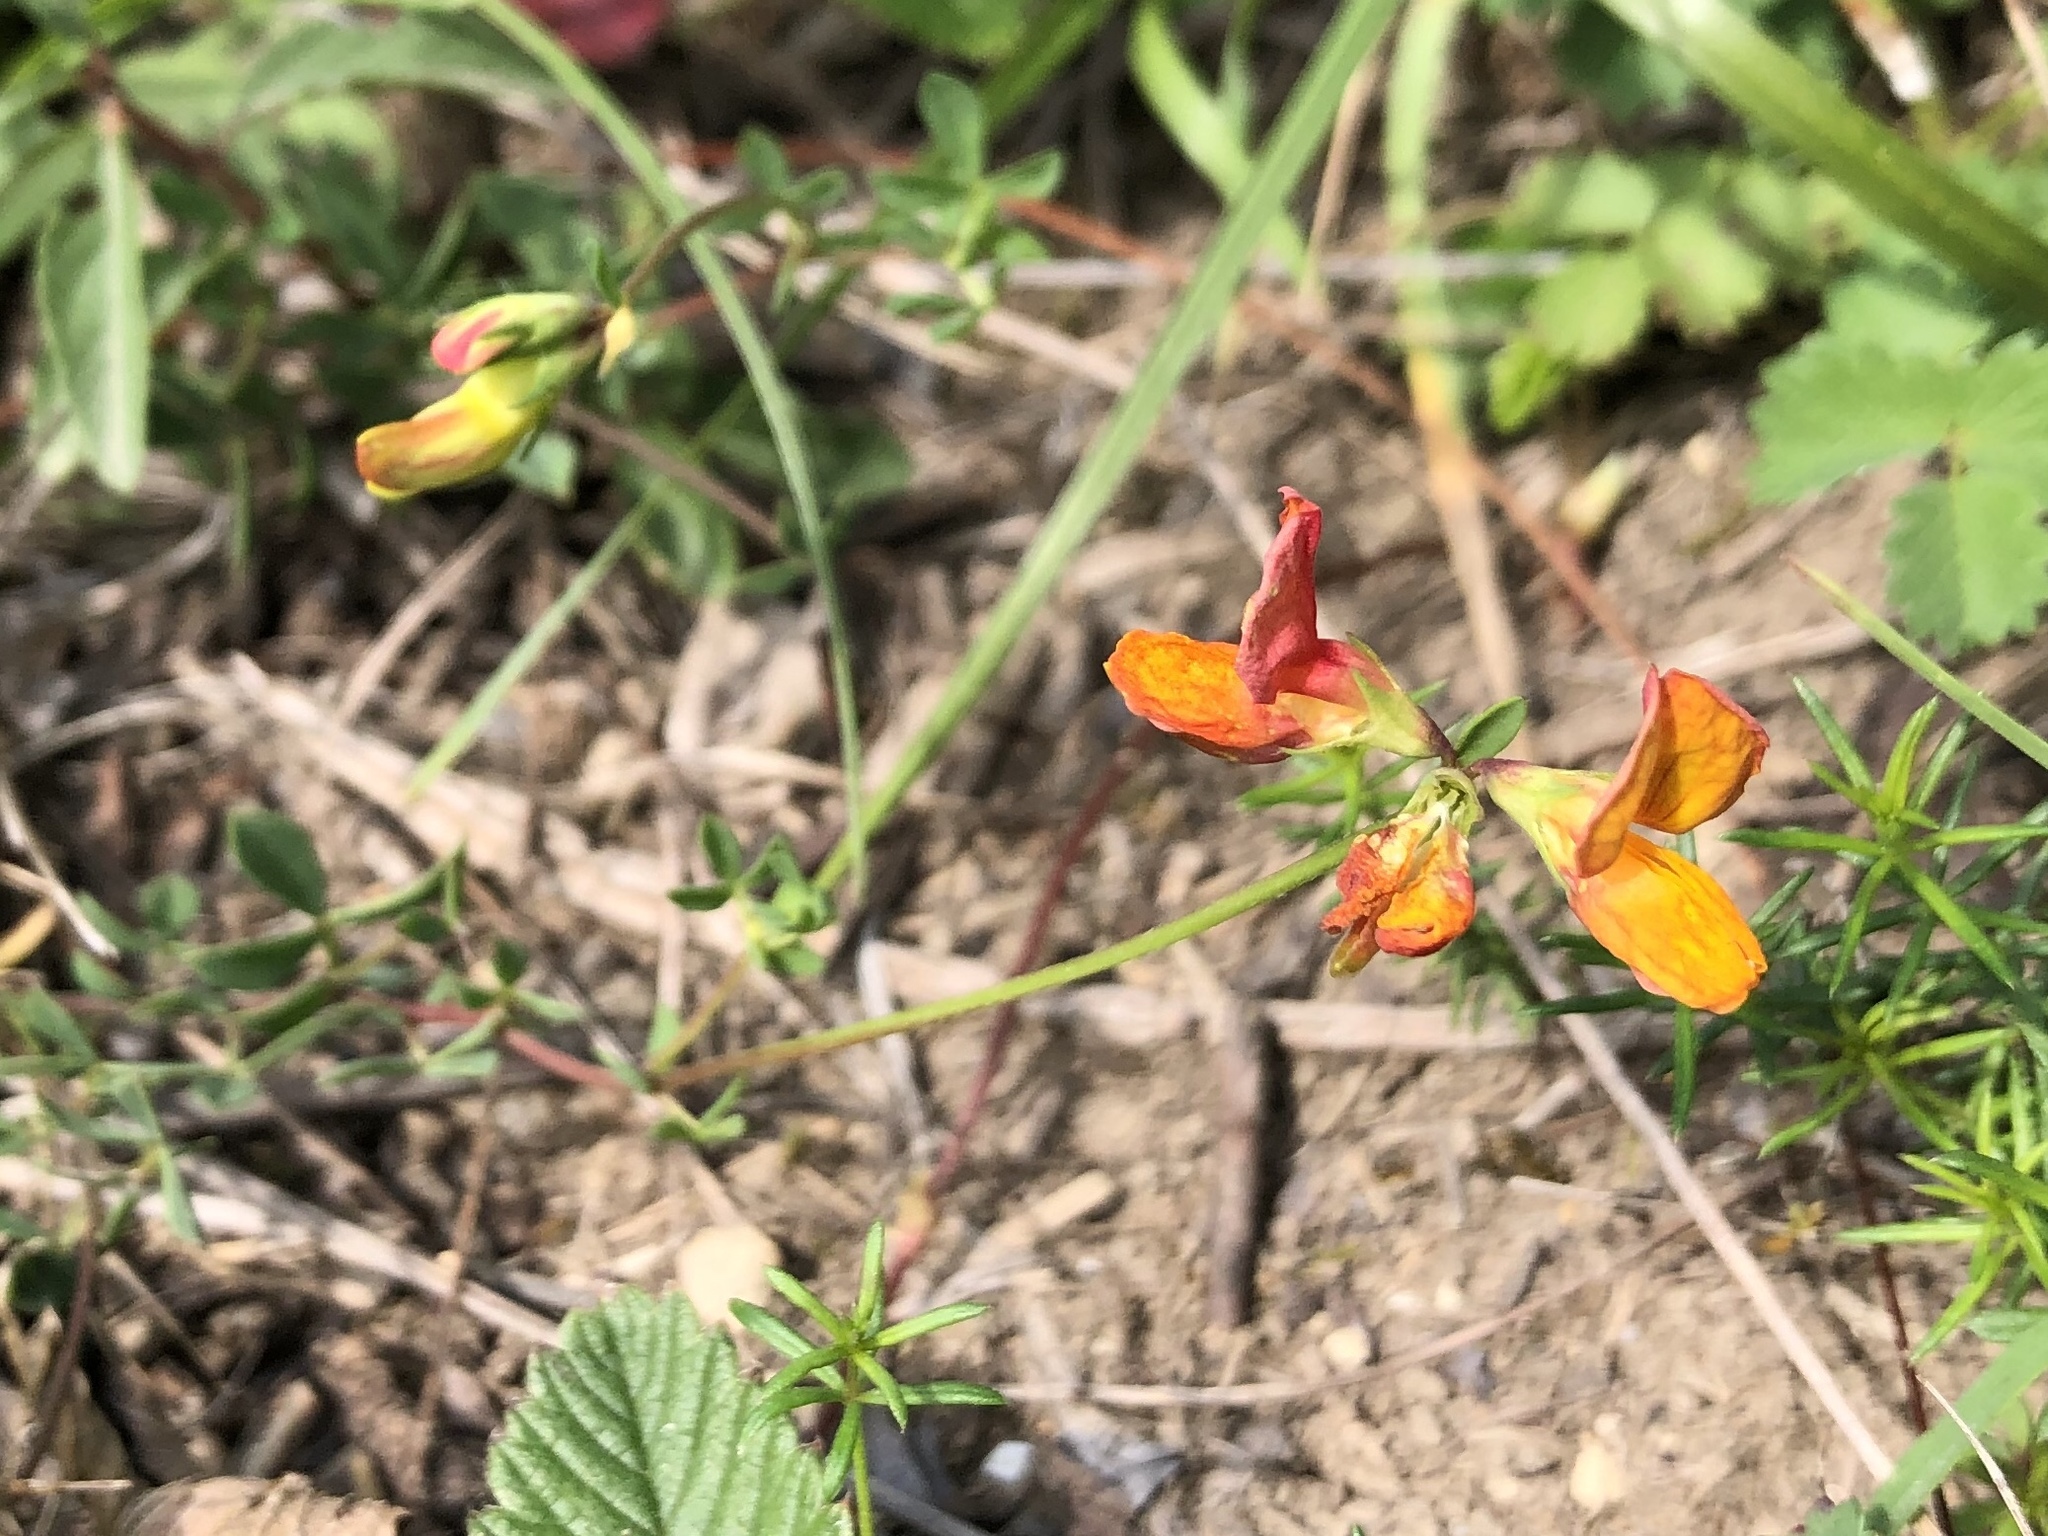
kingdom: Plantae
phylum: Tracheophyta
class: Magnoliopsida
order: Fabales
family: Fabaceae
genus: Lotus
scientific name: Lotus corniculatus
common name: Common bird's-foot-trefoil
